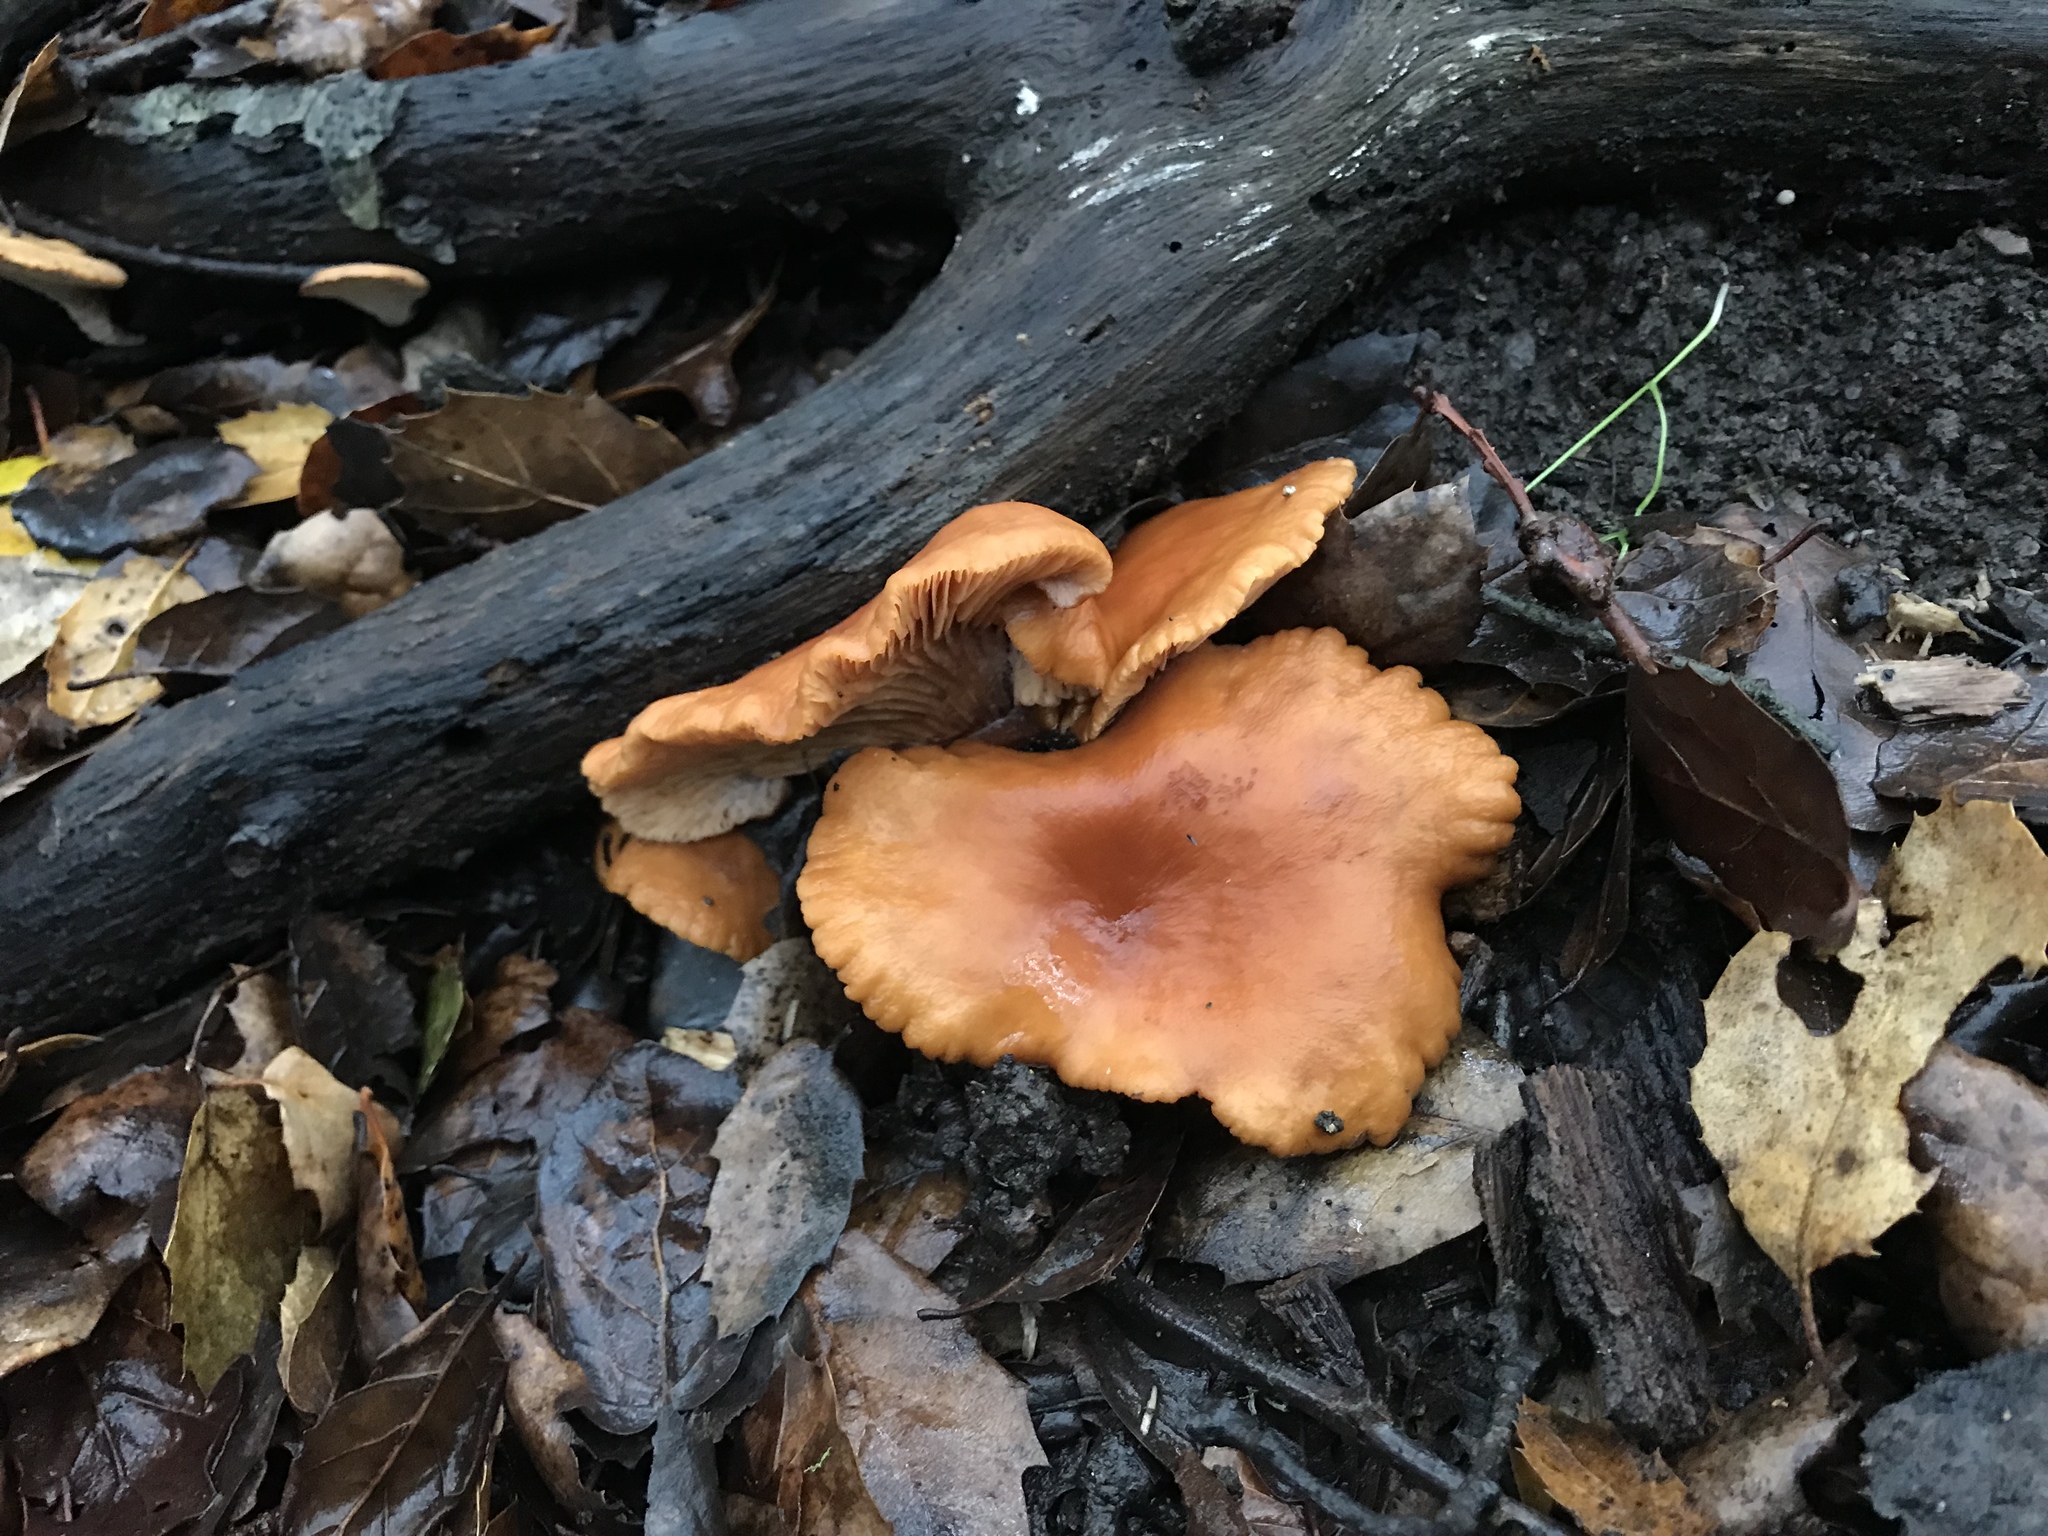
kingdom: Fungi
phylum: Basidiomycota
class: Agaricomycetes
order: Russulales
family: Russulaceae
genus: Lactarius
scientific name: Lactarius rubidus
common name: Candy cap
